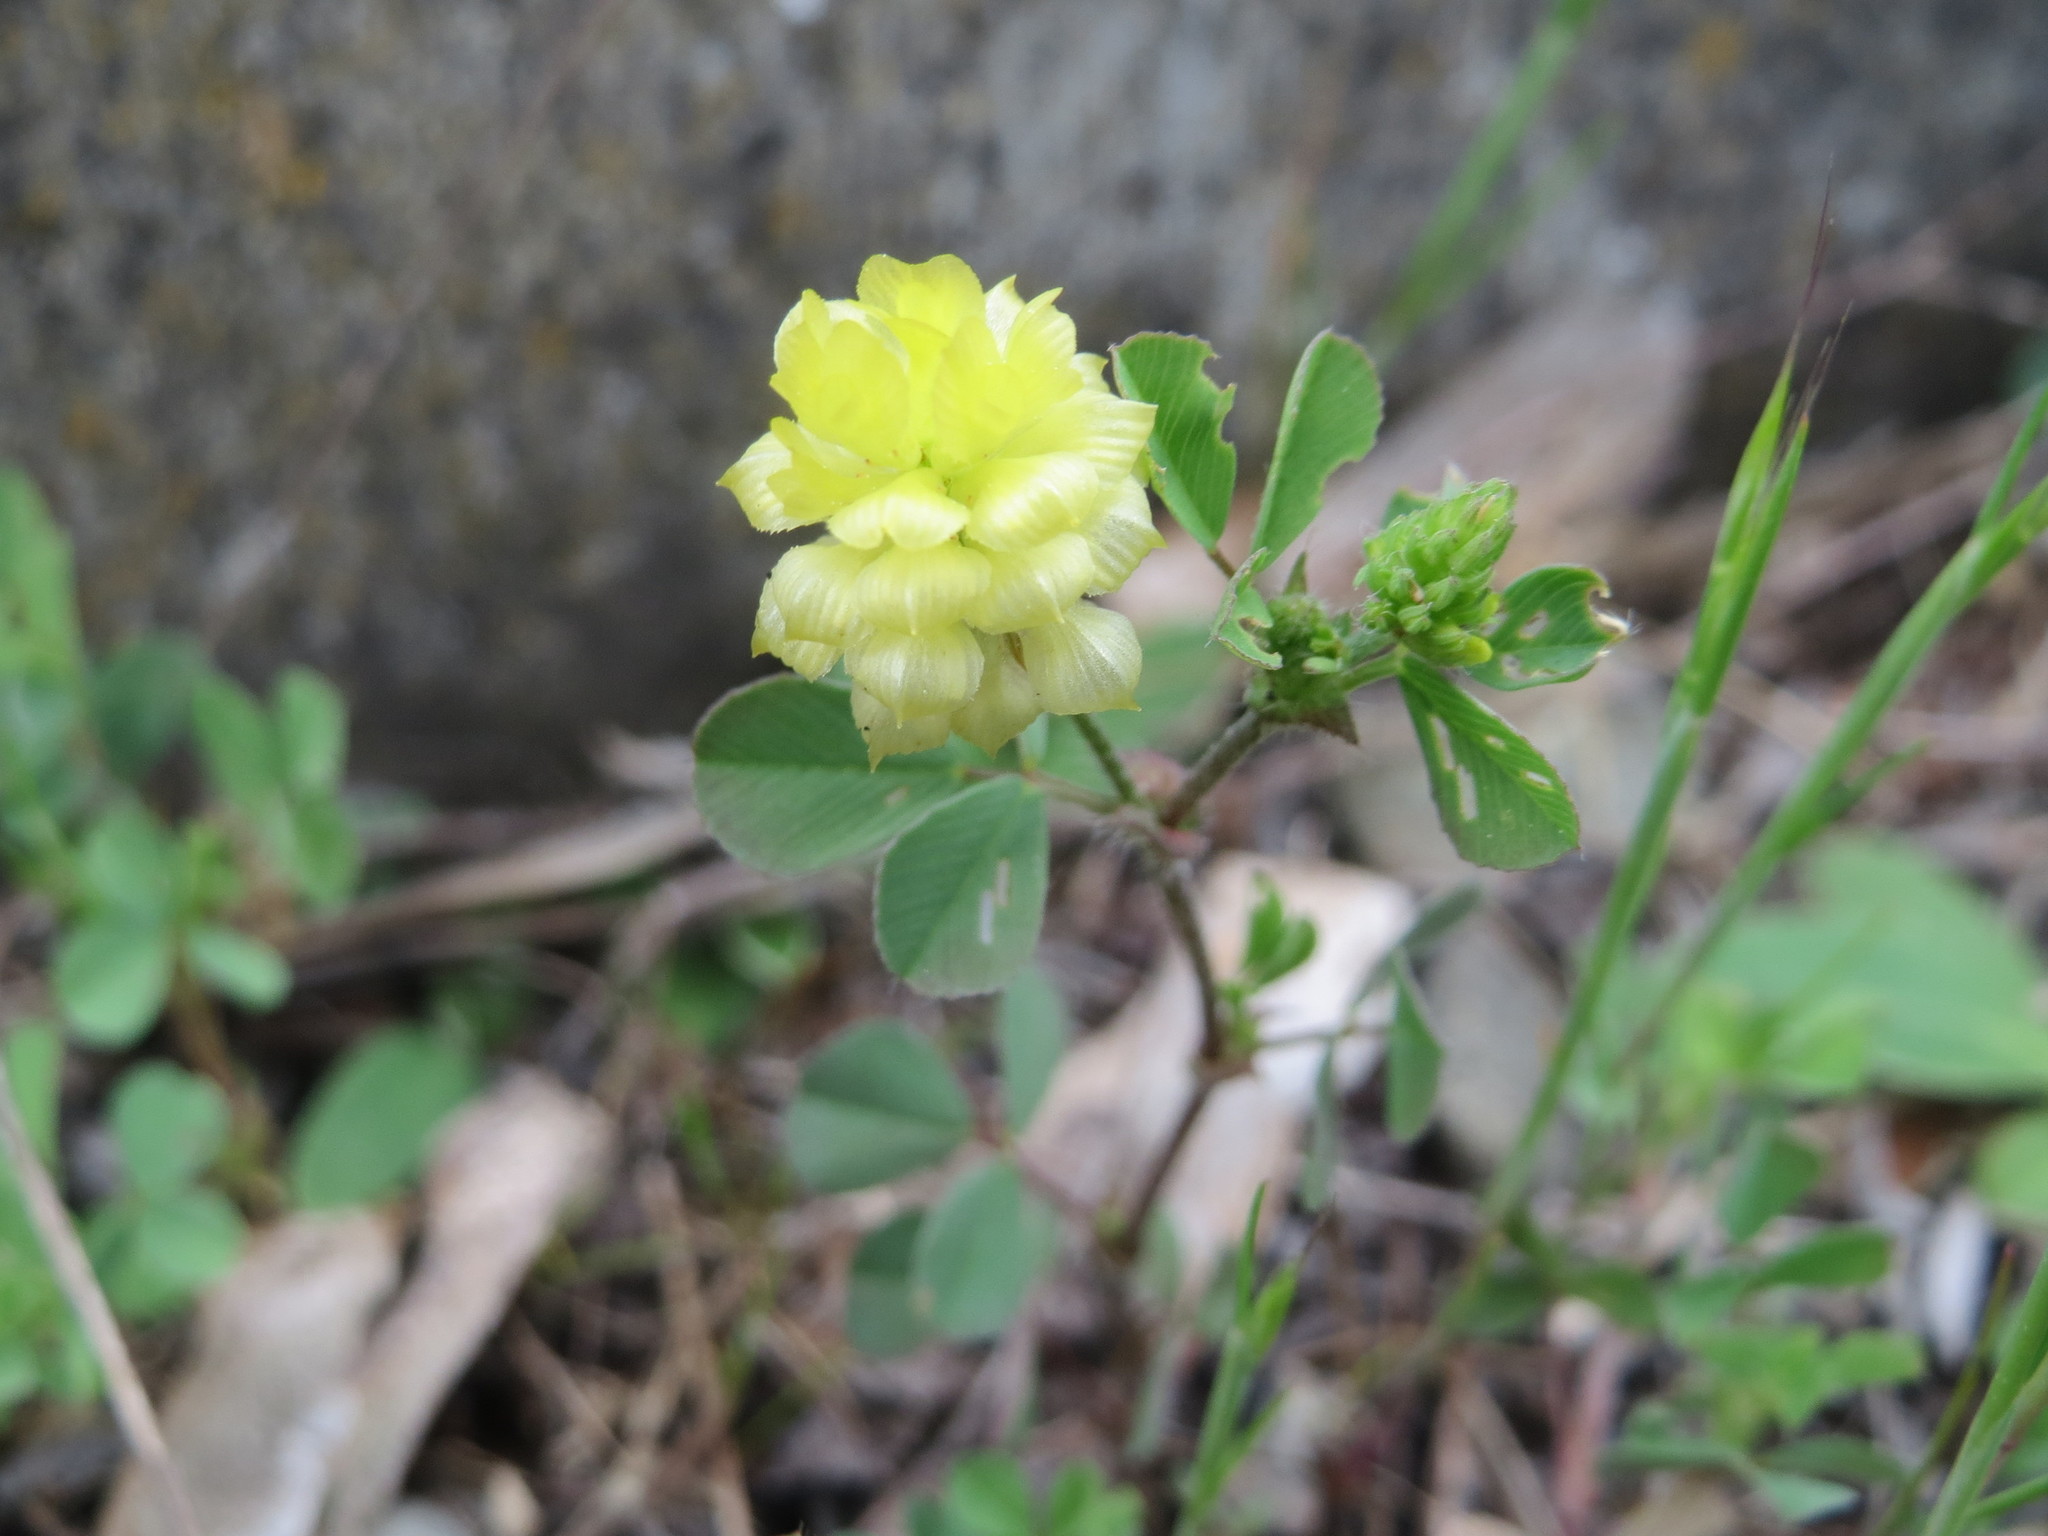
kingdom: Plantae
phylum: Tracheophyta
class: Magnoliopsida
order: Fabales
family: Fabaceae
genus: Trifolium
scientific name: Trifolium campestre
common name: Field clover
